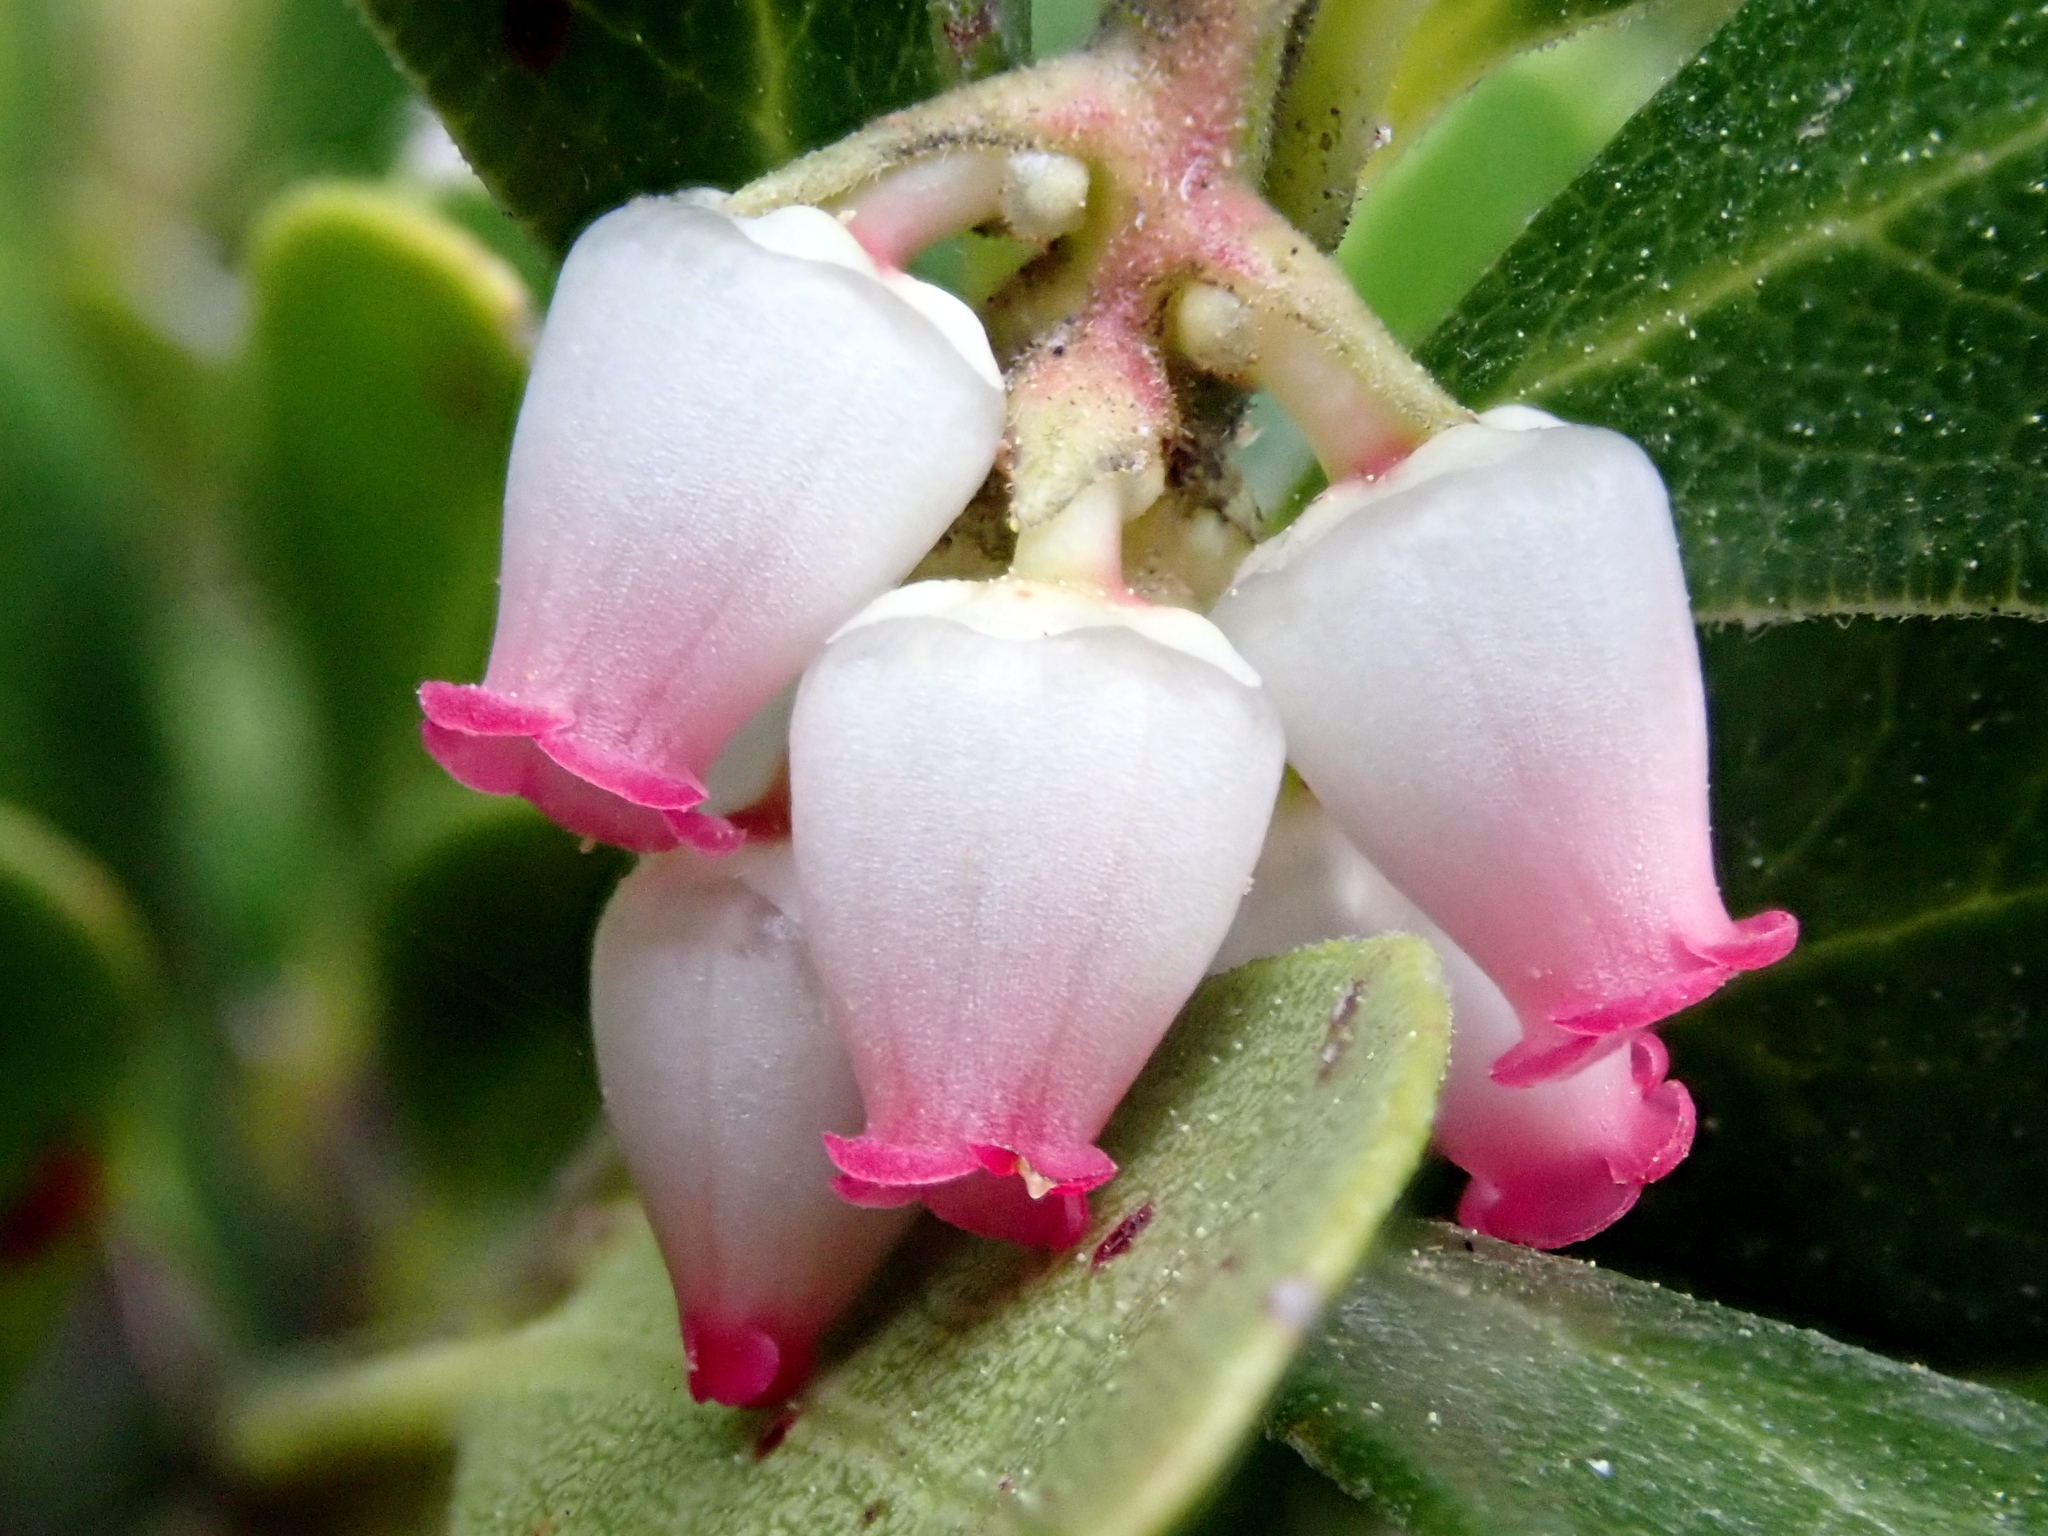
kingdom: Plantae
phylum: Tracheophyta
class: Magnoliopsida
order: Ericales
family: Ericaceae
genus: Arctostaphylos
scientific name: Arctostaphylos uva-ursi
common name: Bearberry
